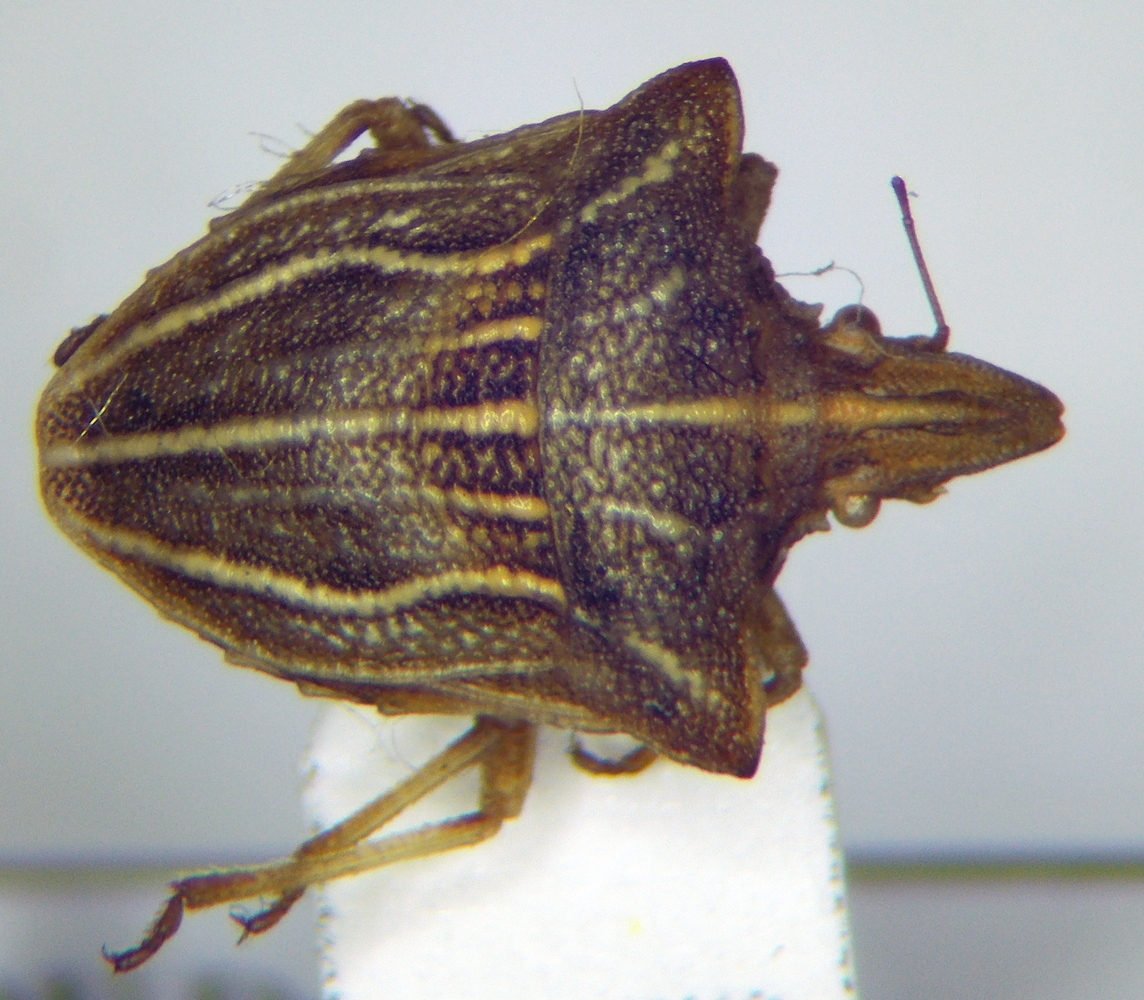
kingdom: Animalia
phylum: Arthropoda
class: Insecta
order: Hemiptera
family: Pentatomidae
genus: Ancyrosoma
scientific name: Ancyrosoma leucogrammes
